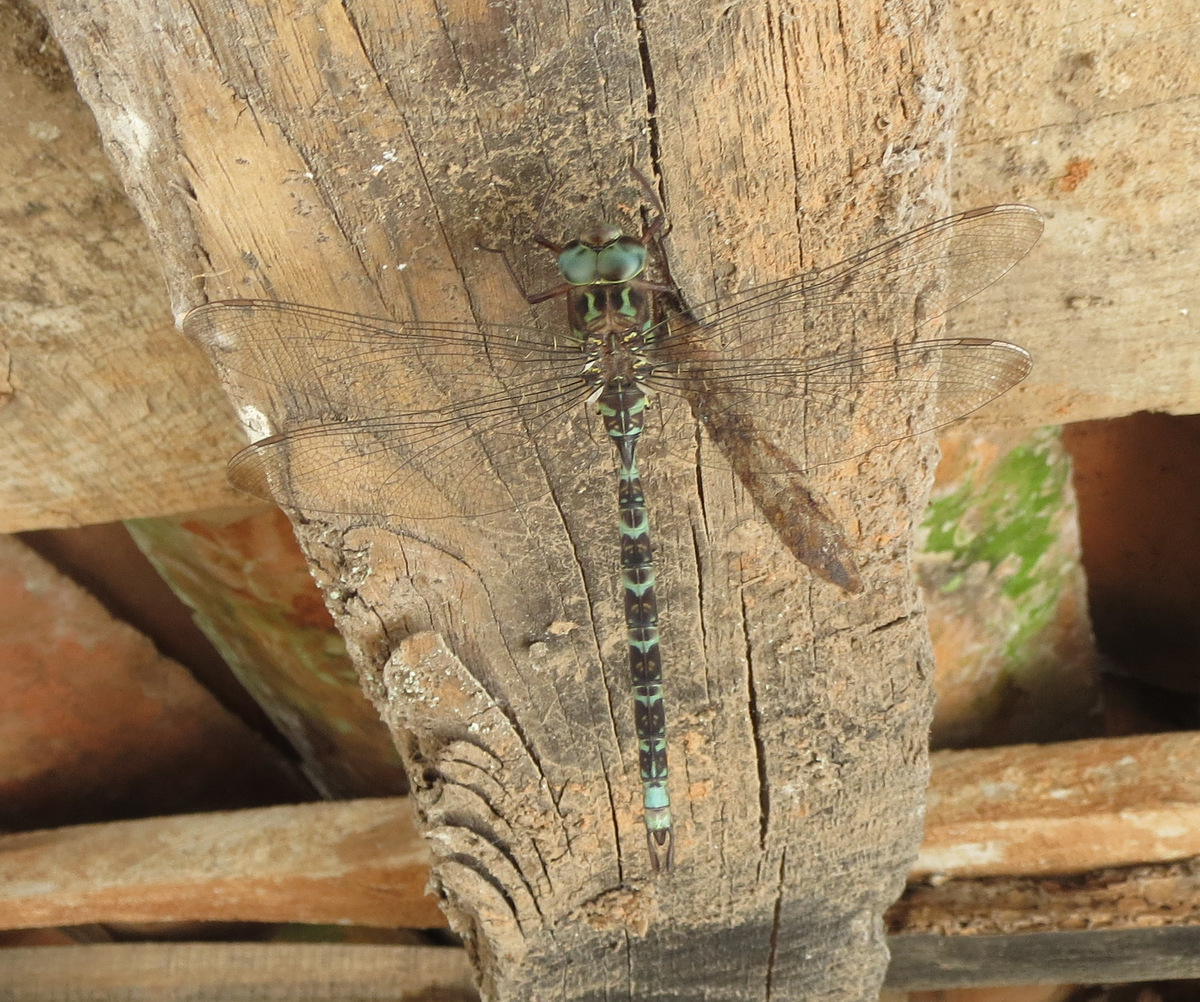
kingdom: Animalia
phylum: Arthropoda
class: Insecta
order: Odonata
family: Aeshnidae
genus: Boyeria
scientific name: Boyeria irene
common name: Western spectre
